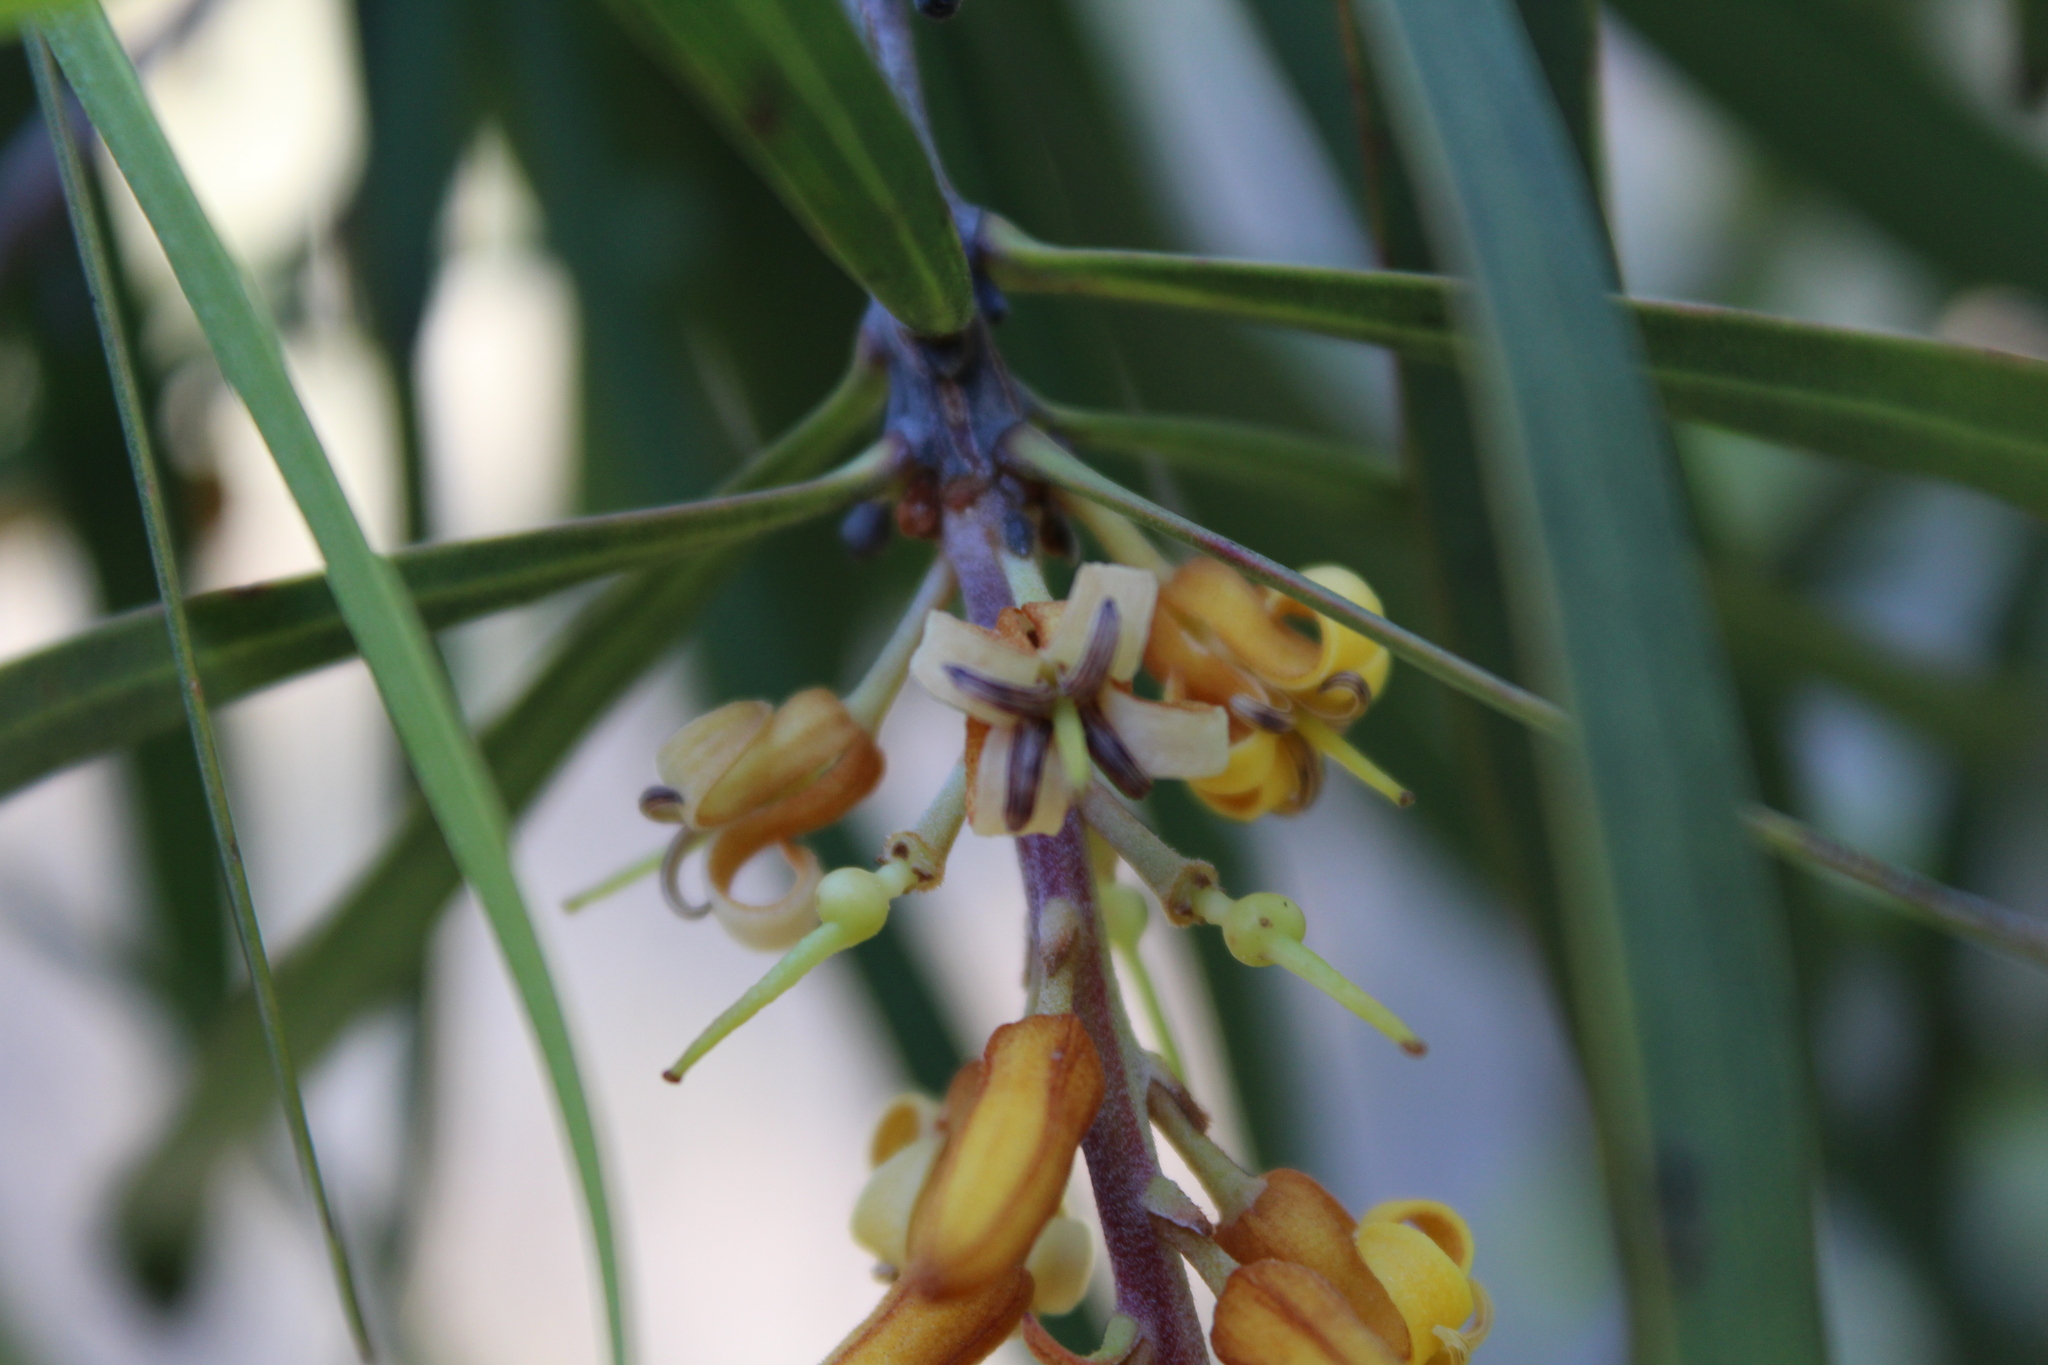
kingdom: Plantae
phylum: Tracheophyta
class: Magnoliopsida
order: Proteales
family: Proteaceae
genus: Persoonia
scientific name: Persoonia longifolia
